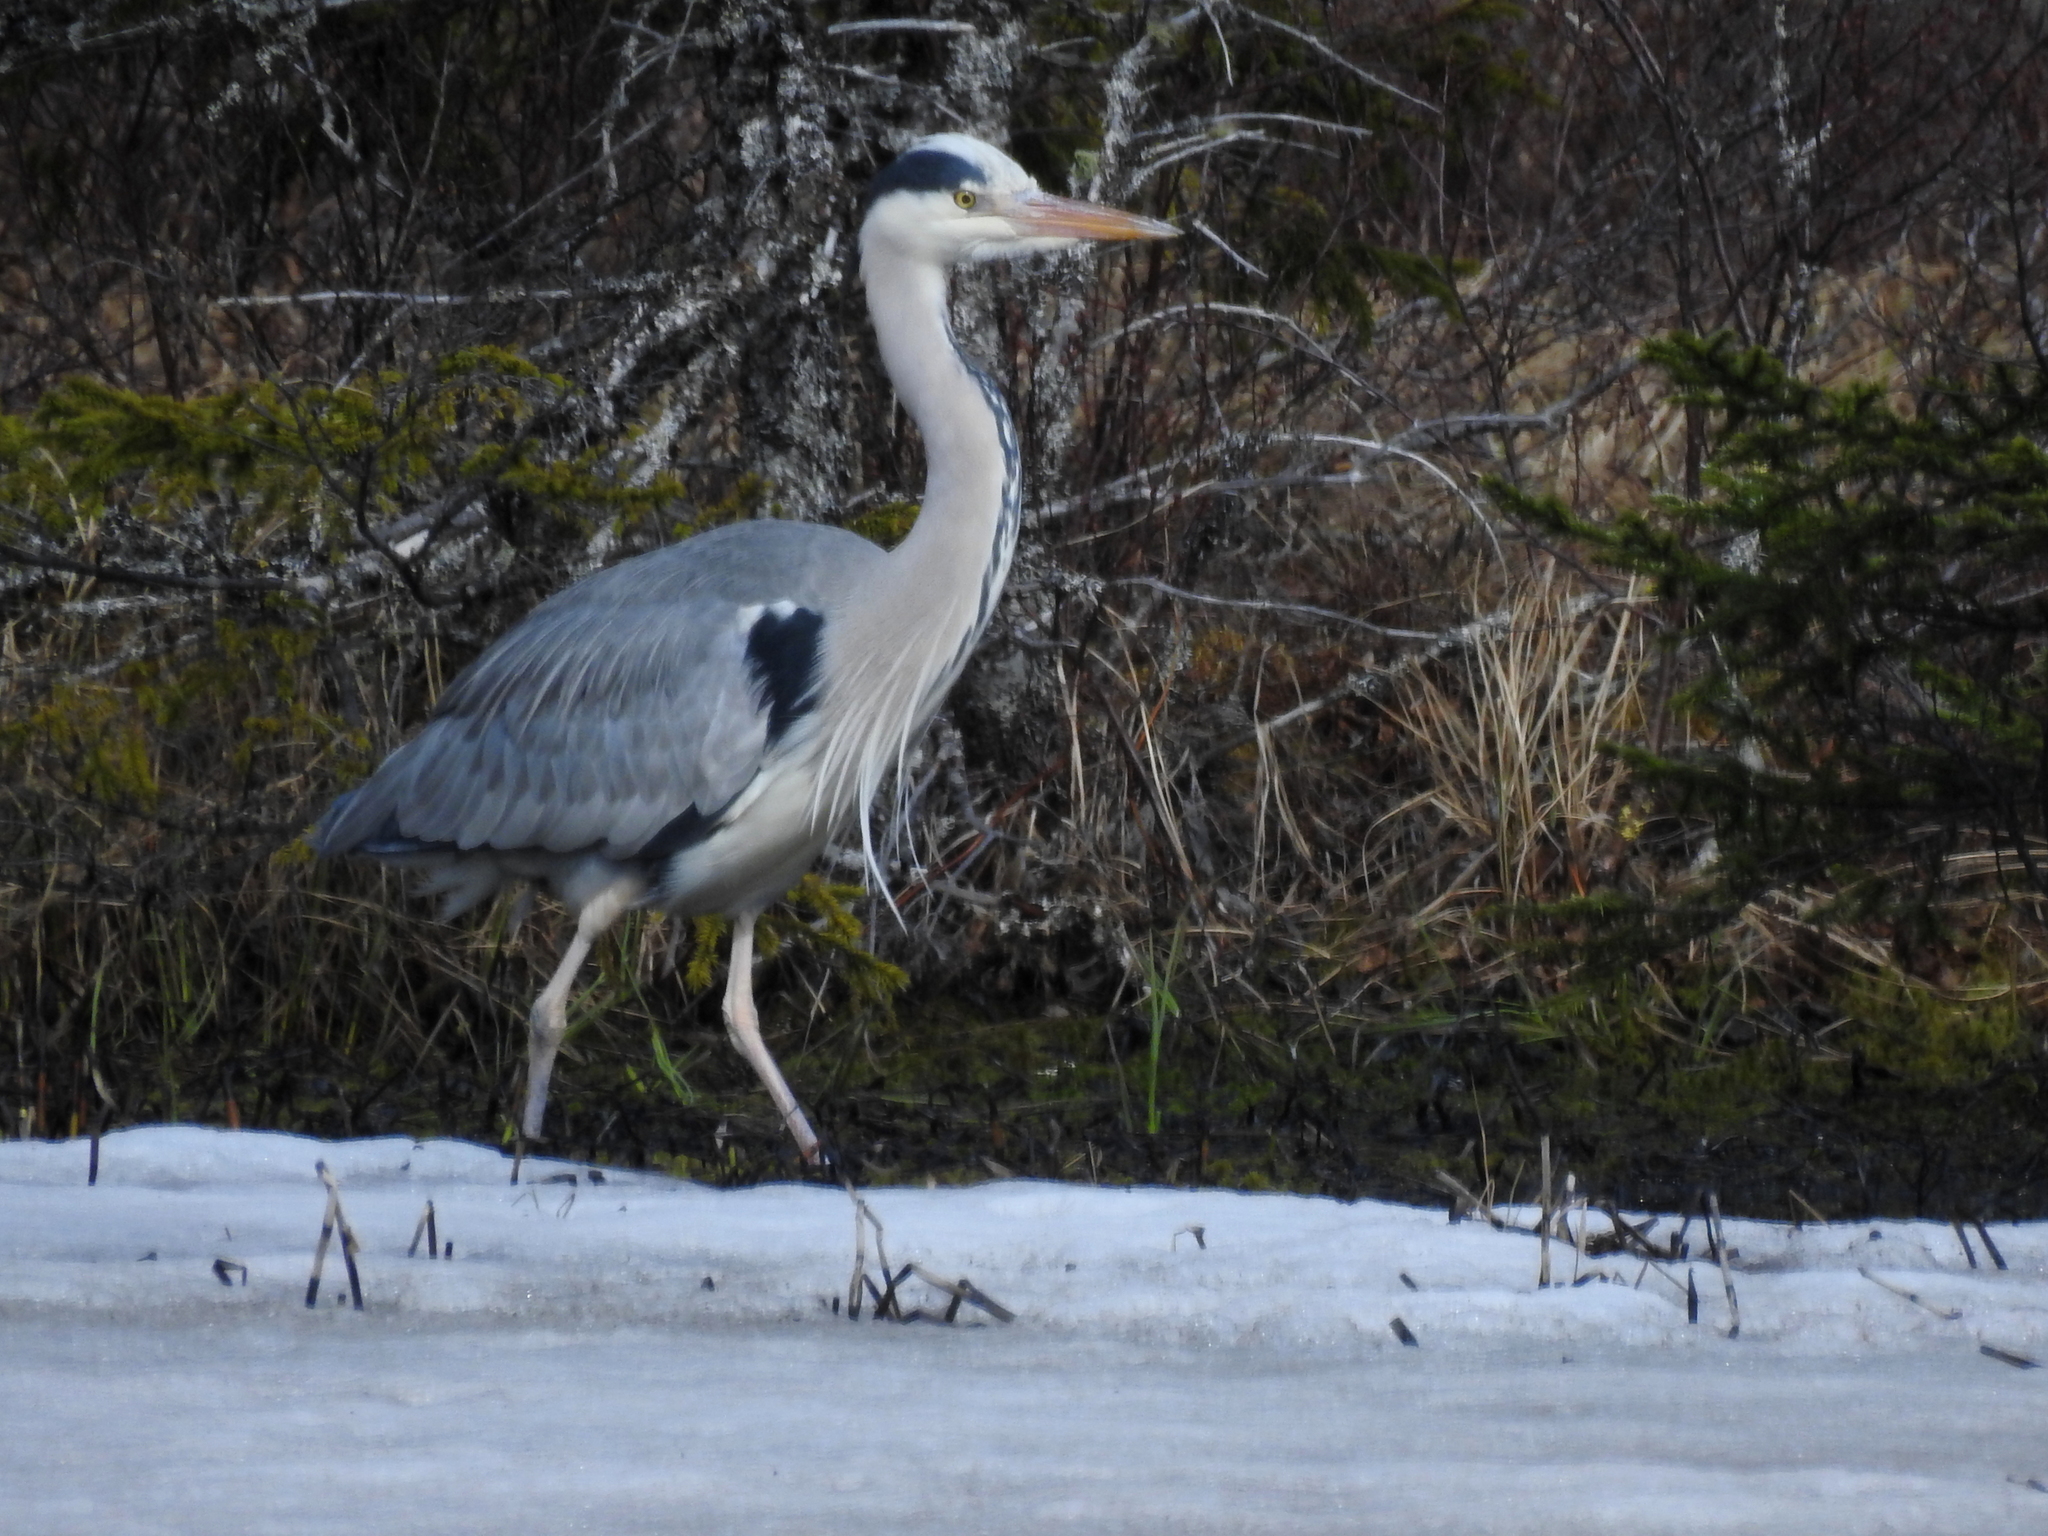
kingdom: Animalia
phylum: Chordata
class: Aves
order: Pelecaniformes
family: Ardeidae
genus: Ardea
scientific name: Ardea cinerea
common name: Grey heron
